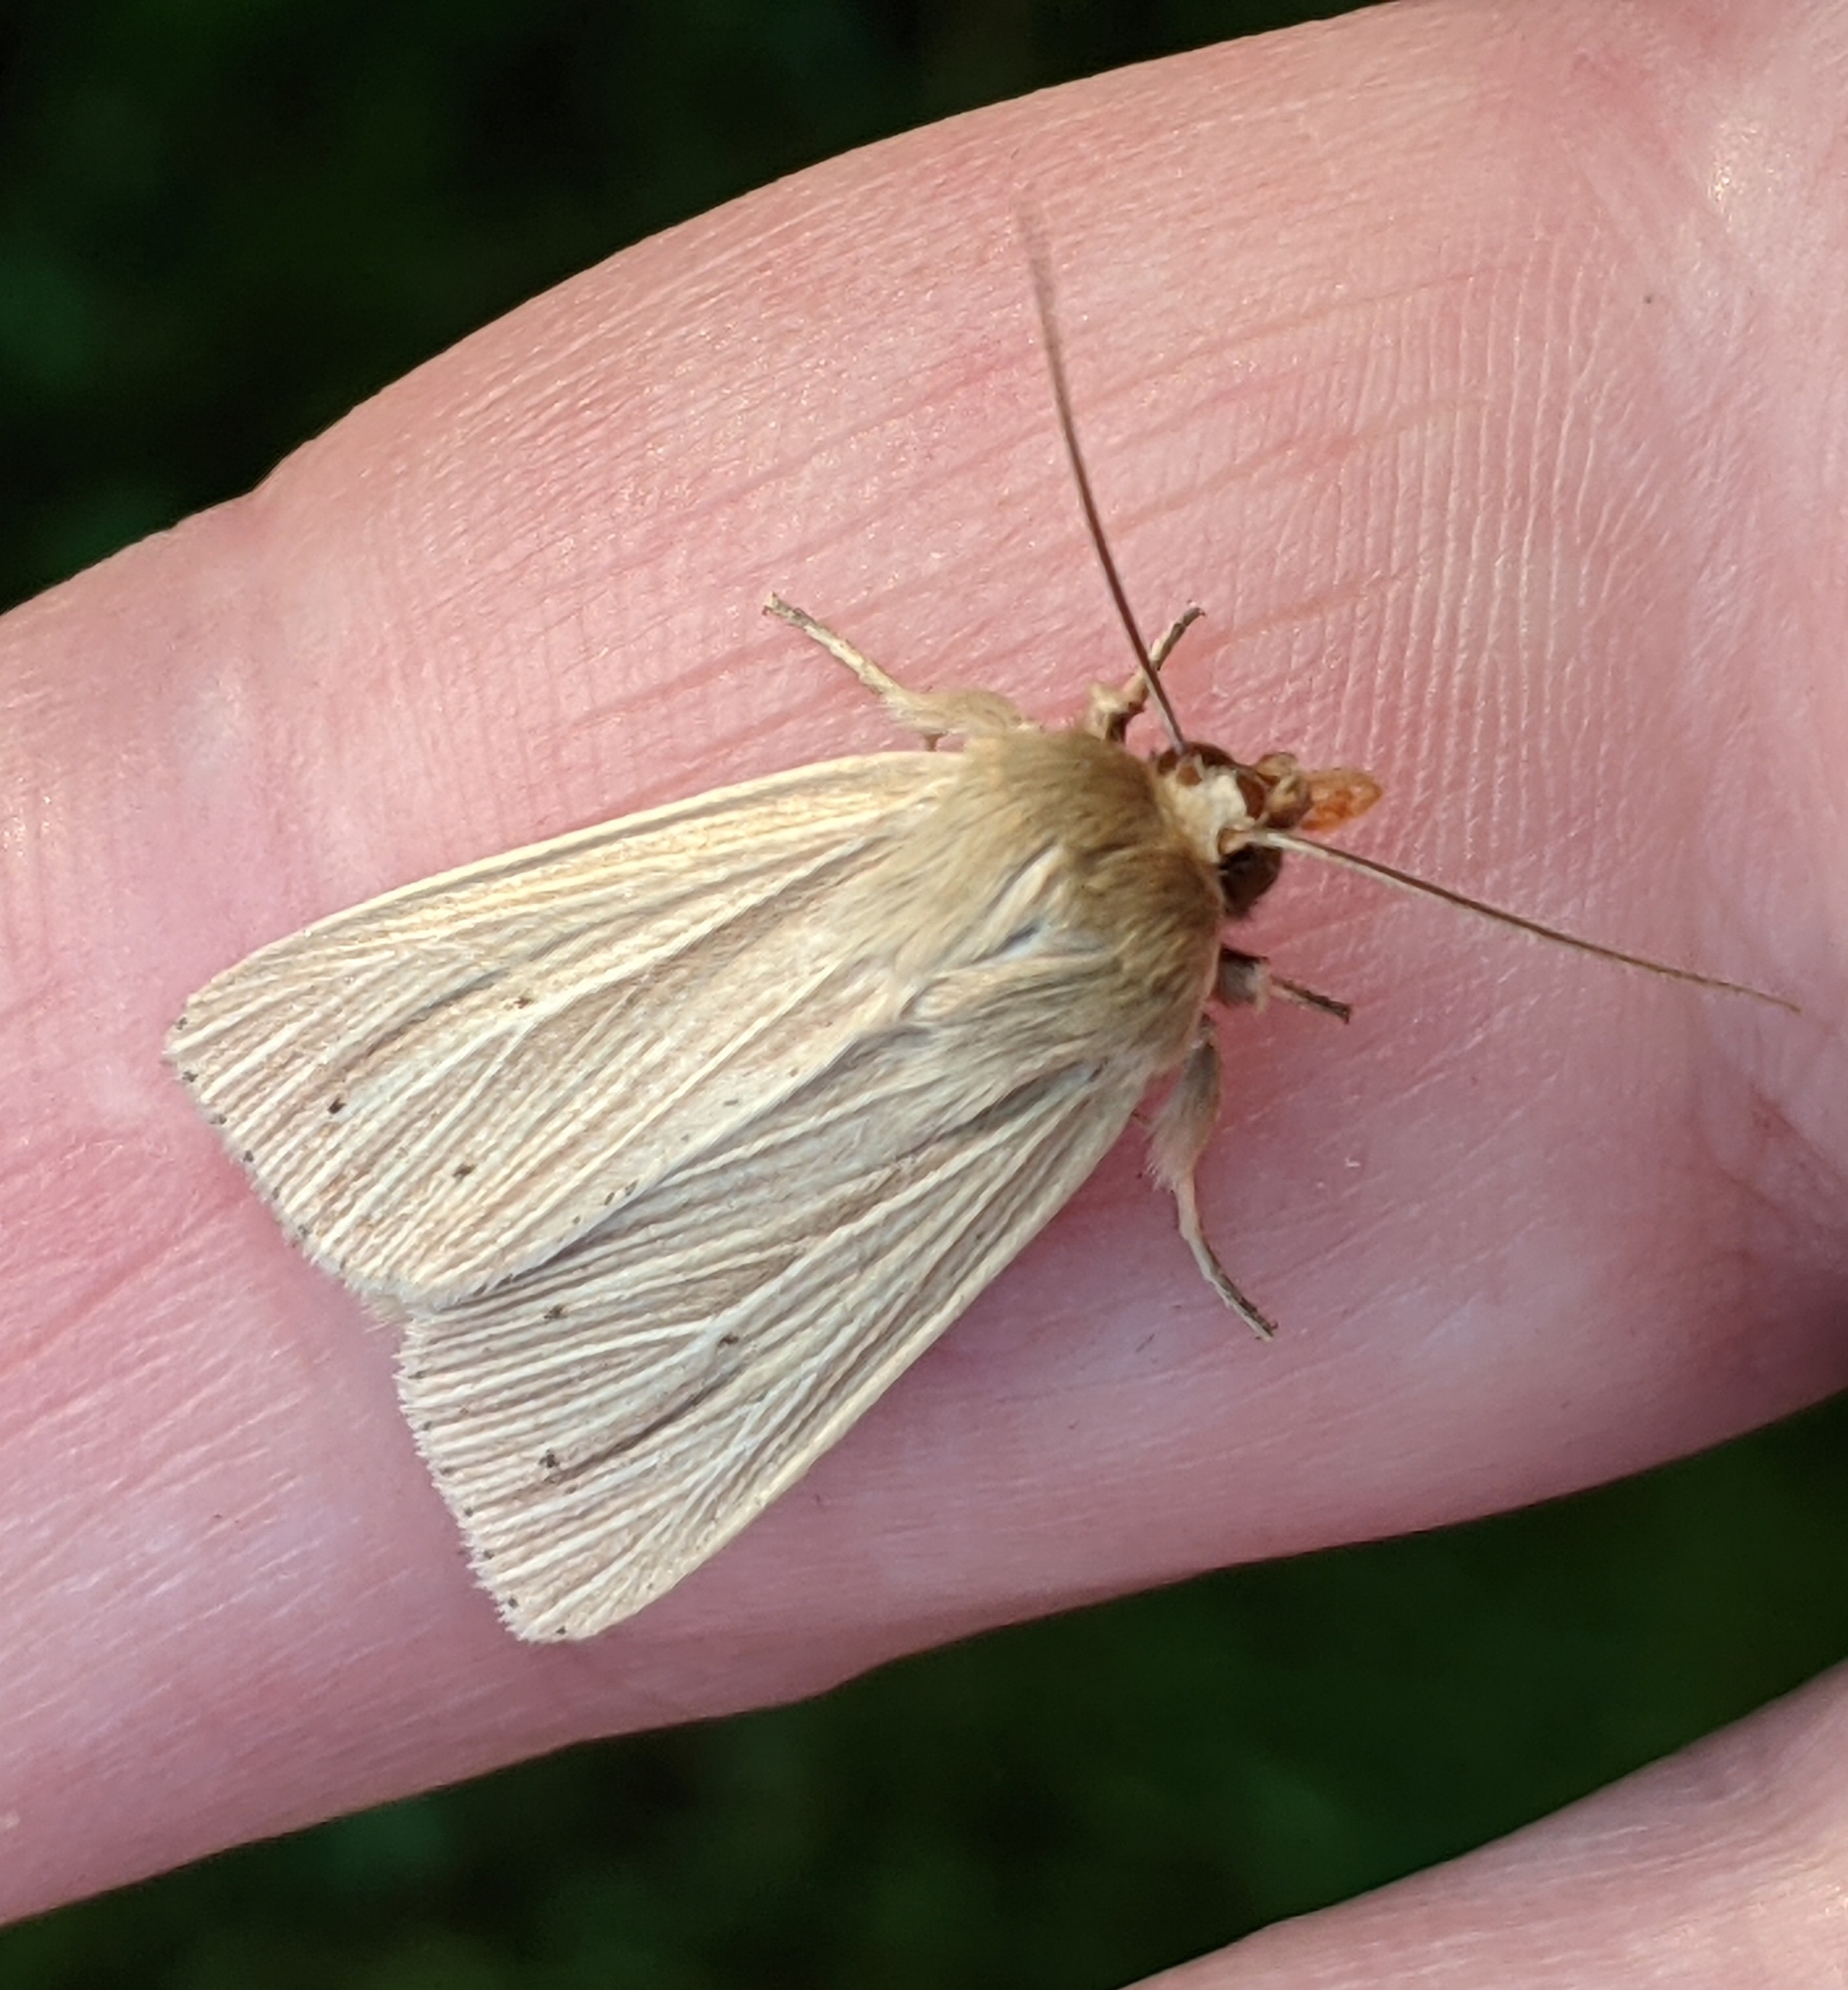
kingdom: Animalia
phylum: Arthropoda
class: Insecta
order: Lepidoptera
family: Noctuidae
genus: Mythimna
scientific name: Mythimna oxygala
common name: Lesser wainscot
